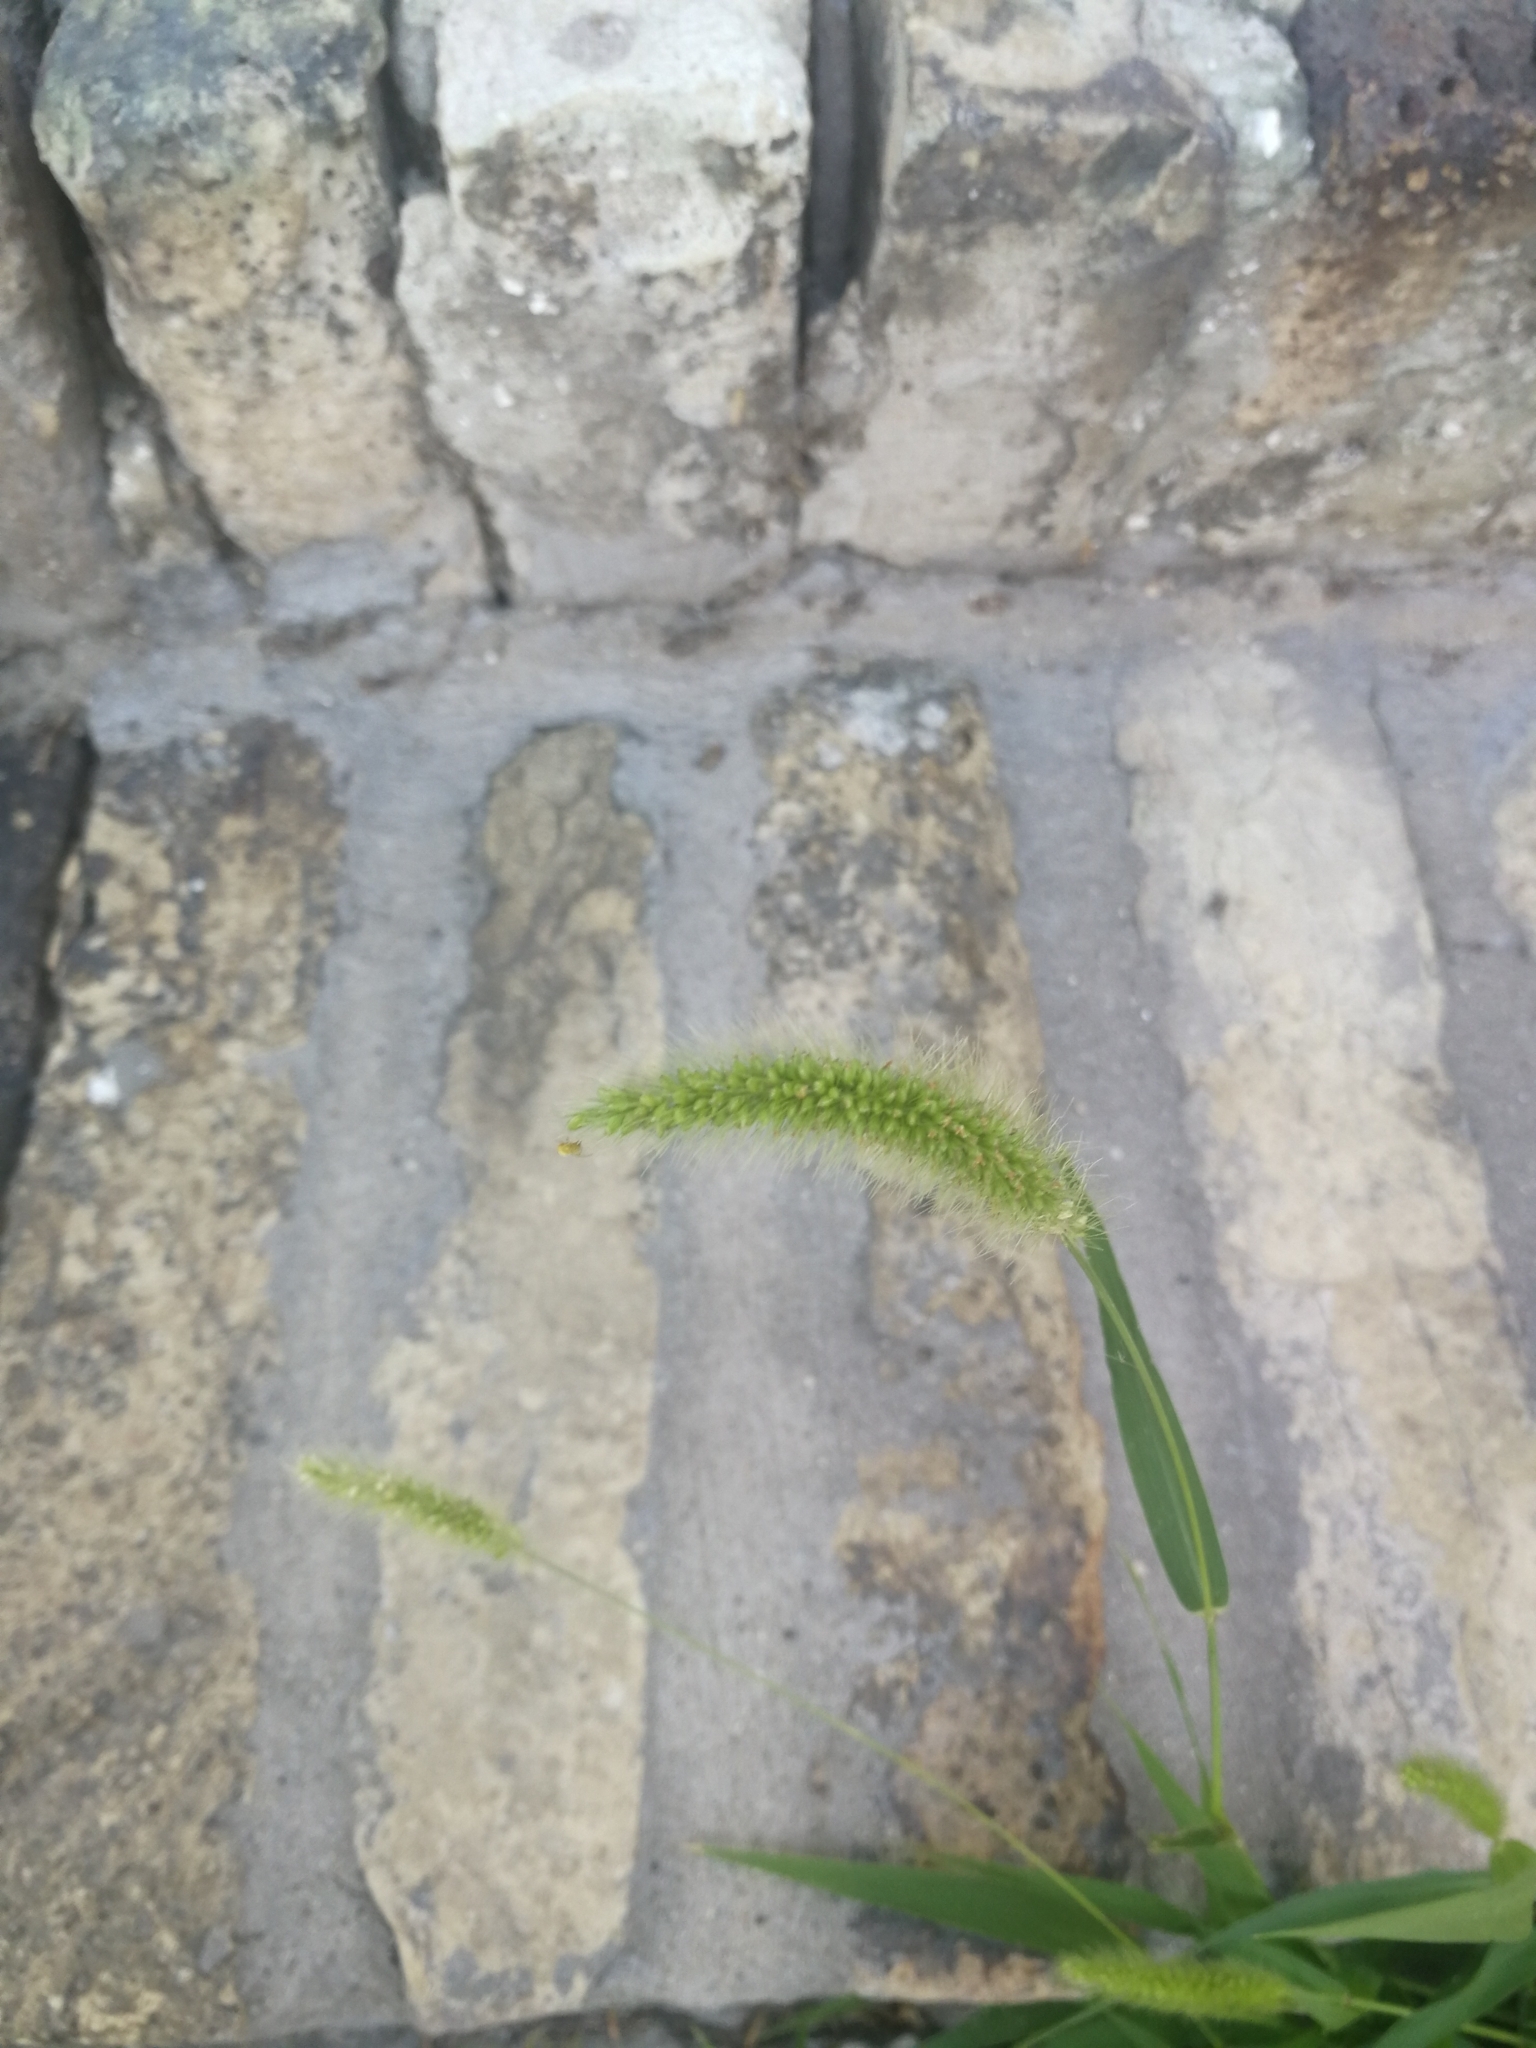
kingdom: Plantae
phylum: Tracheophyta
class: Liliopsida
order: Poales
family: Poaceae
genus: Setaria
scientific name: Setaria viridis
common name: Green bristlegrass
